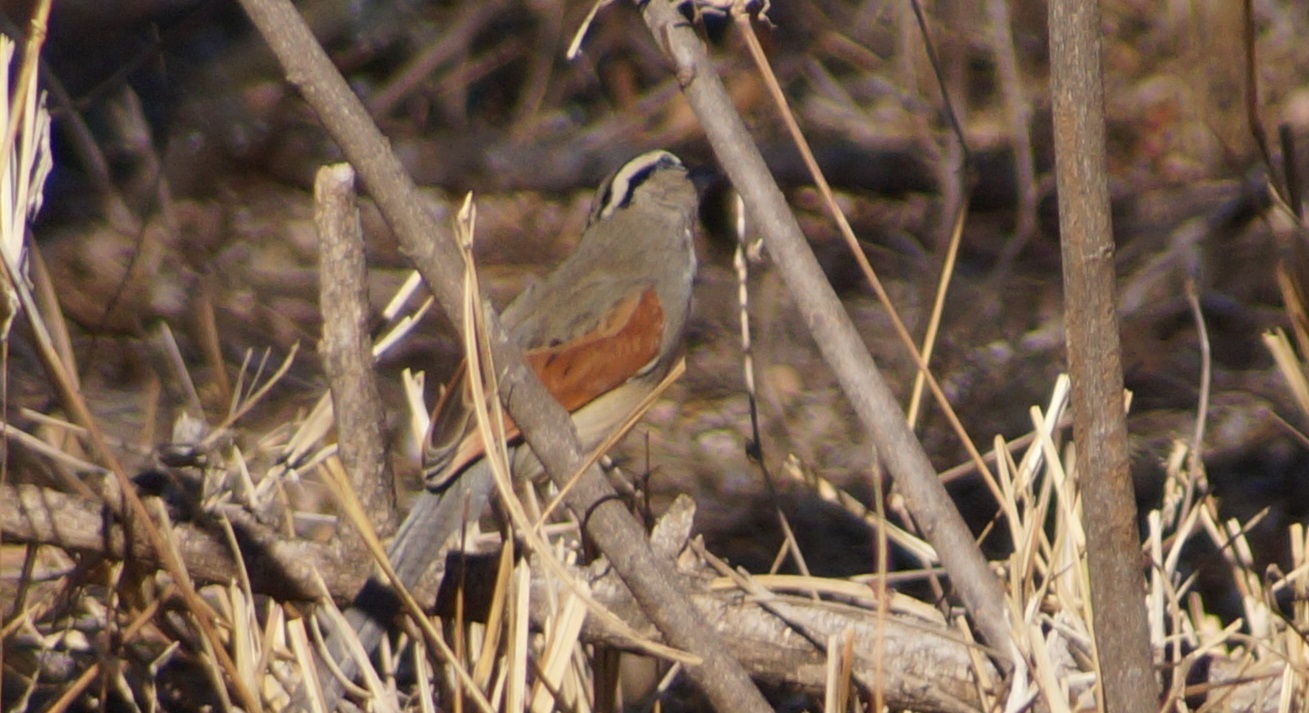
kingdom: Animalia
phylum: Chordata
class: Aves
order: Passeriformes
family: Malaconotidae
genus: Tchagra
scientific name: Tchagra australis
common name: Brown-crowned tchagra
